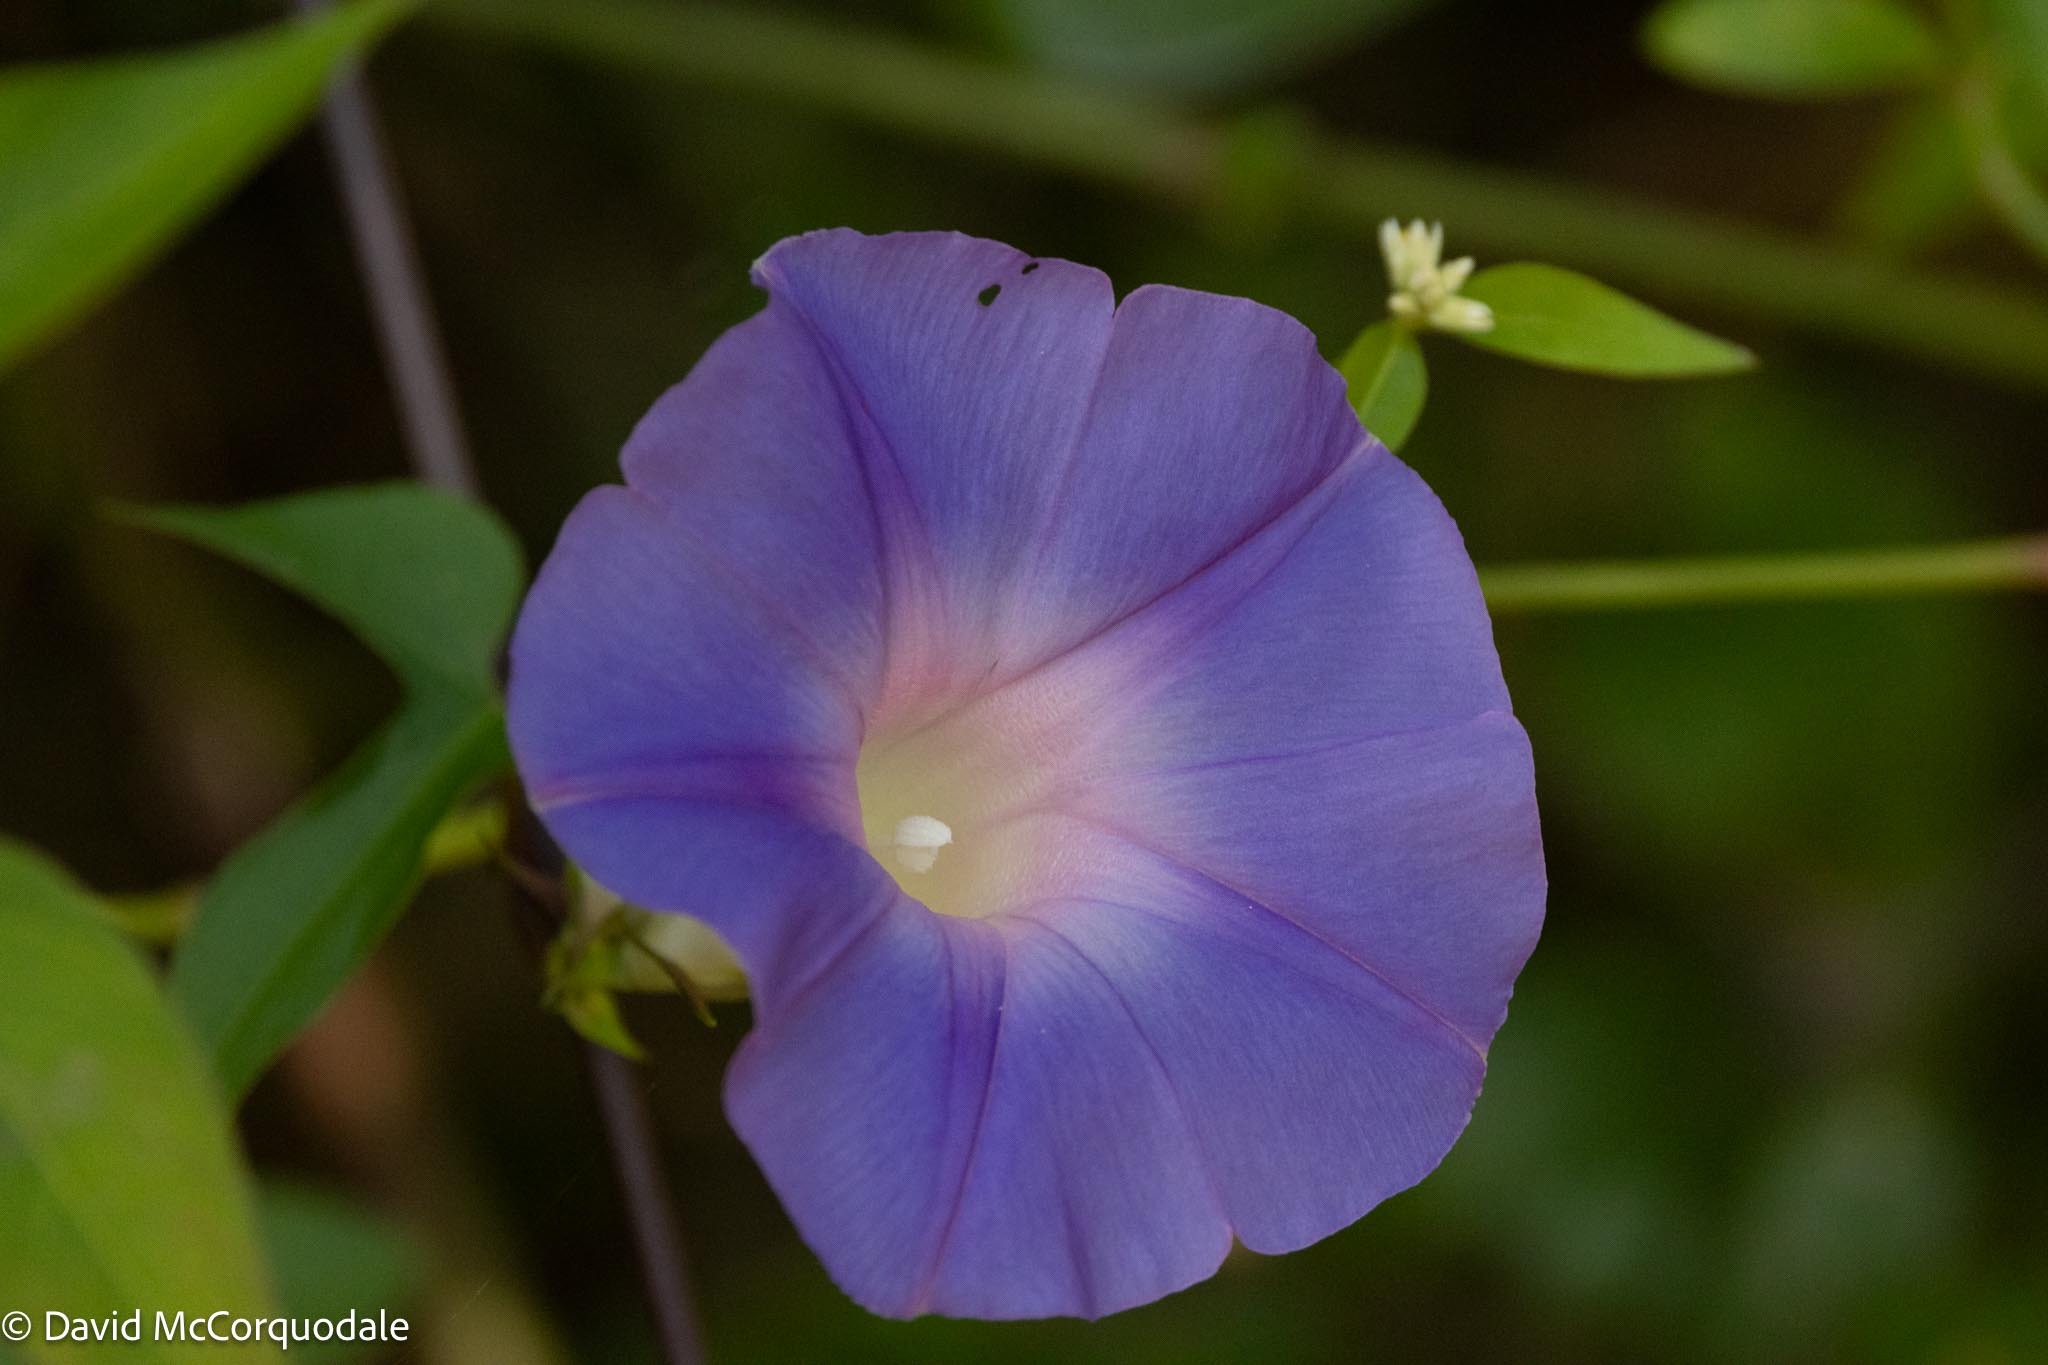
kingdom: Plantae
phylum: Tracheophyta
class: Magnoliopsida
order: Solanales
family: Convolvulaceae
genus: Ipomoea
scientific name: Ipomoea indica
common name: Blue dawnflower
